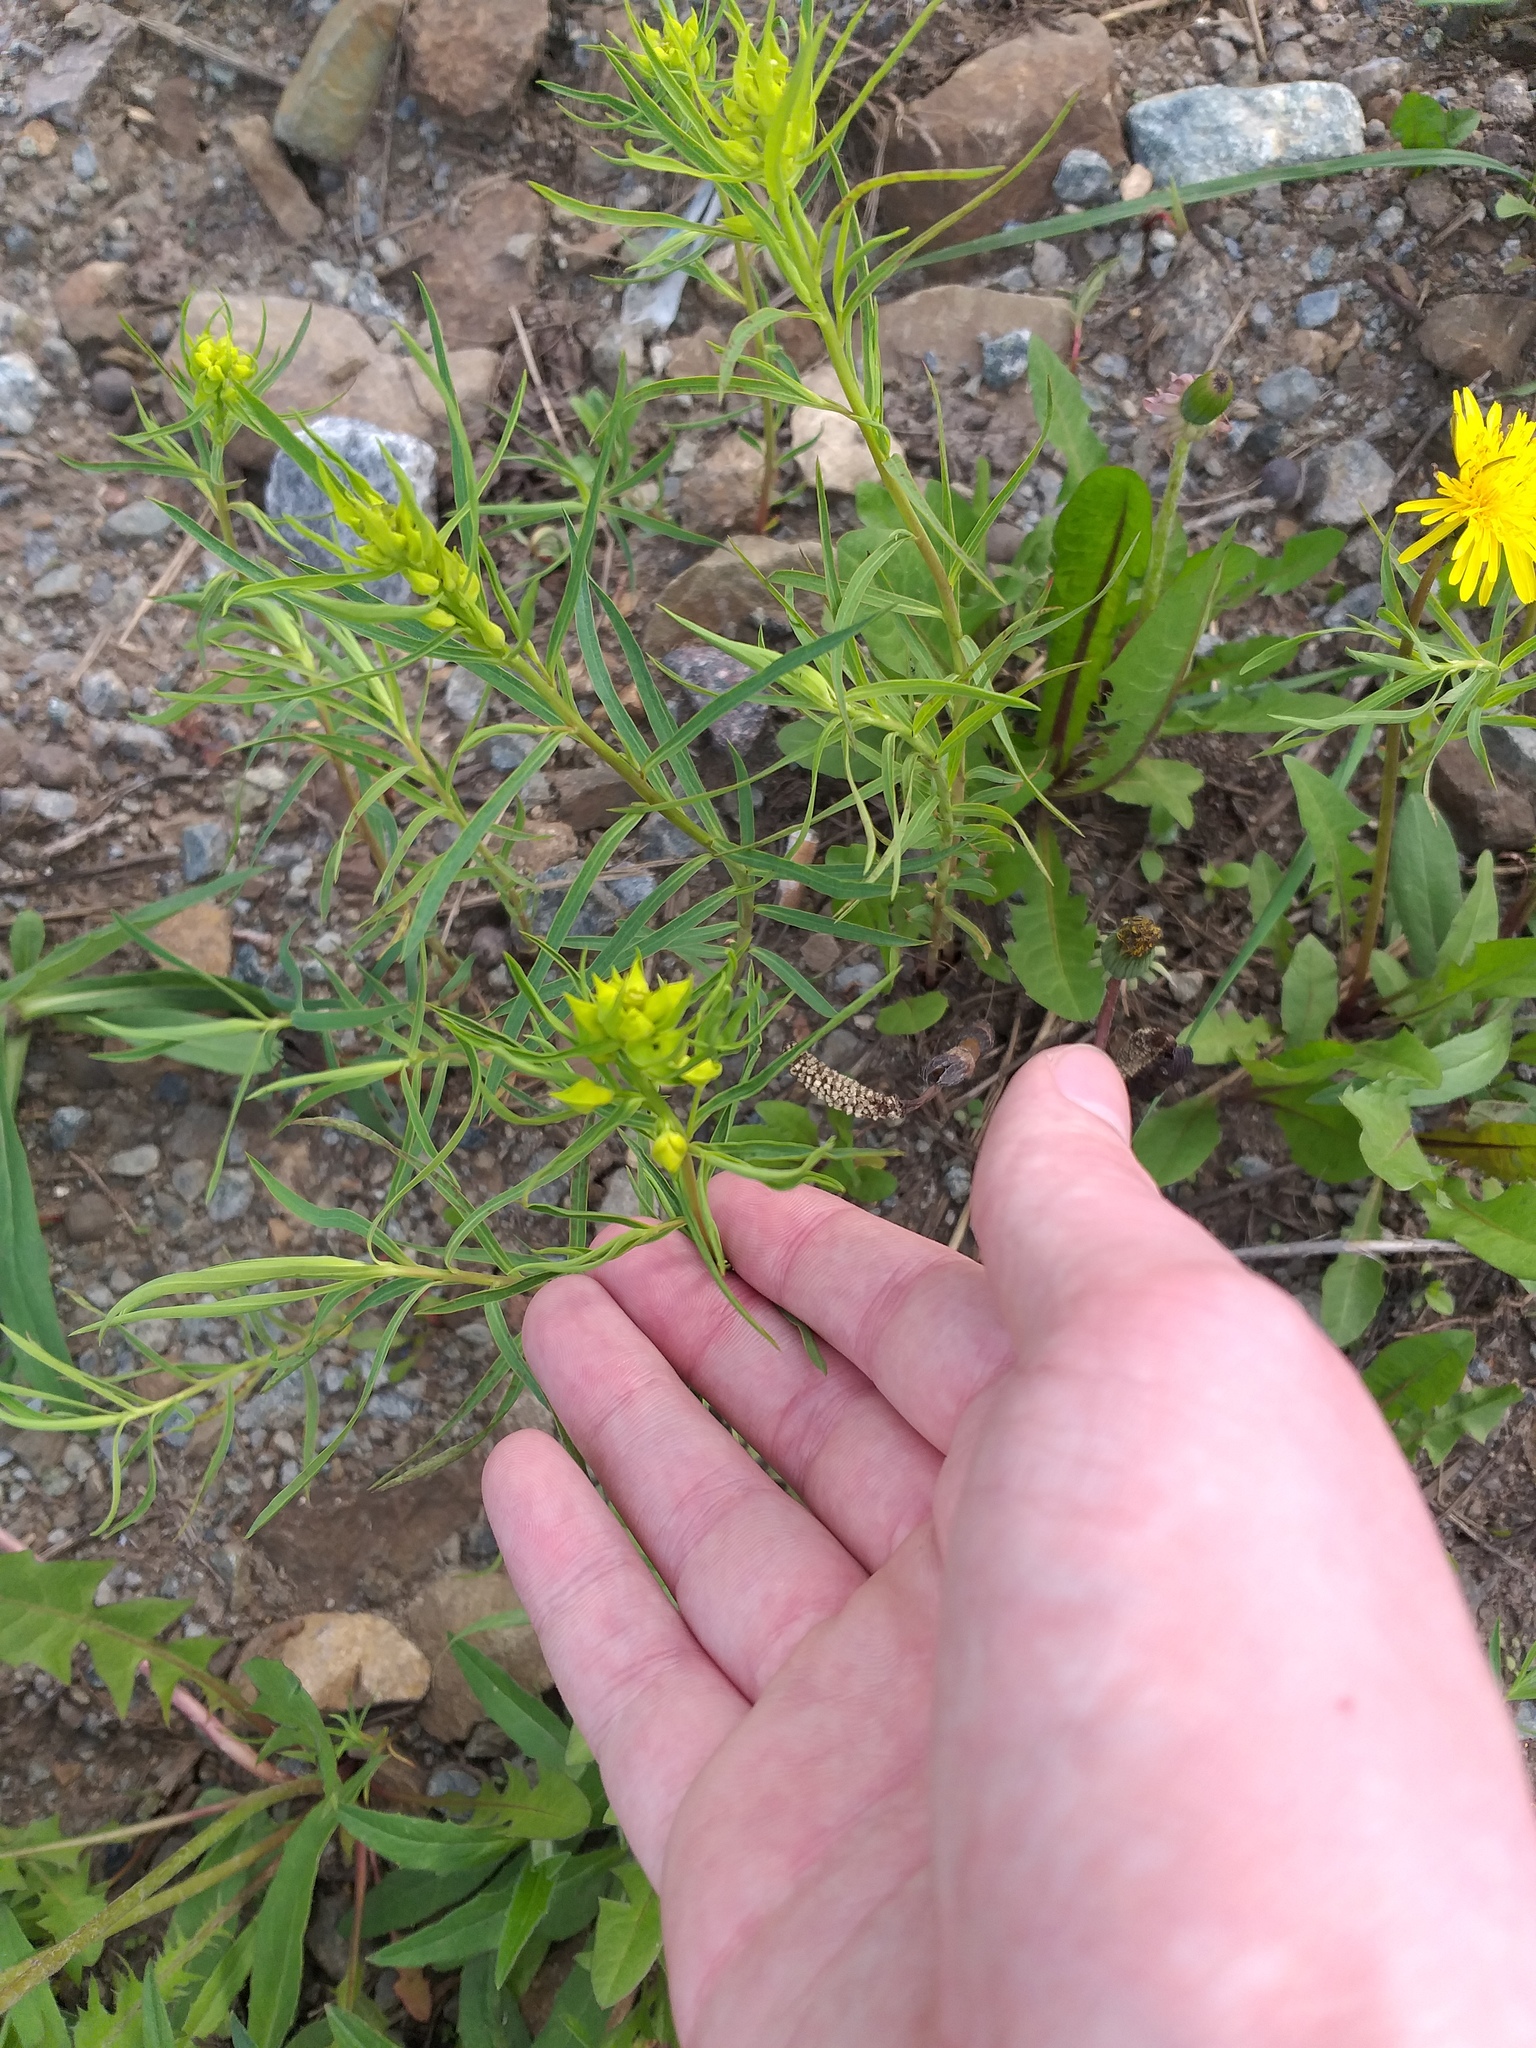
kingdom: Plantae
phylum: Tracheophyta
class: Magnoliopsida
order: Malpighiales
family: Euphorbiaceae
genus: Euphorbia
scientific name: Euphorbia virgata
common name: Leafy spurge
